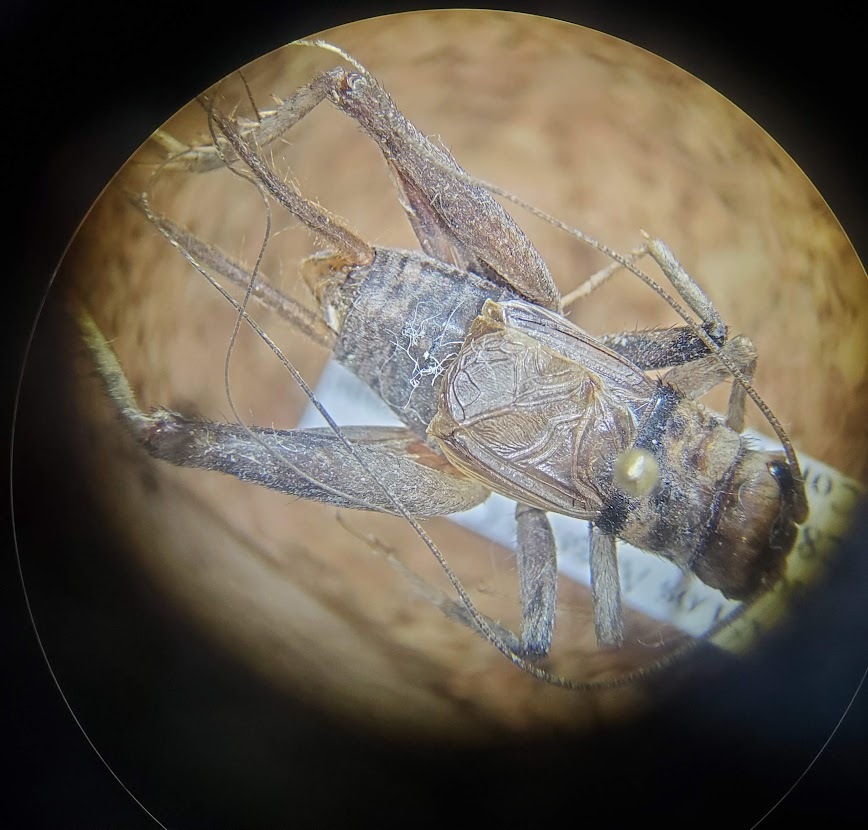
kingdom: Animalia
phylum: Arthropoda
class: Insecta
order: Orthoptera
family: Gryllidae
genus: Gryllodes
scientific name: Gryllodes sigillatus
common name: Tropical house cricket
